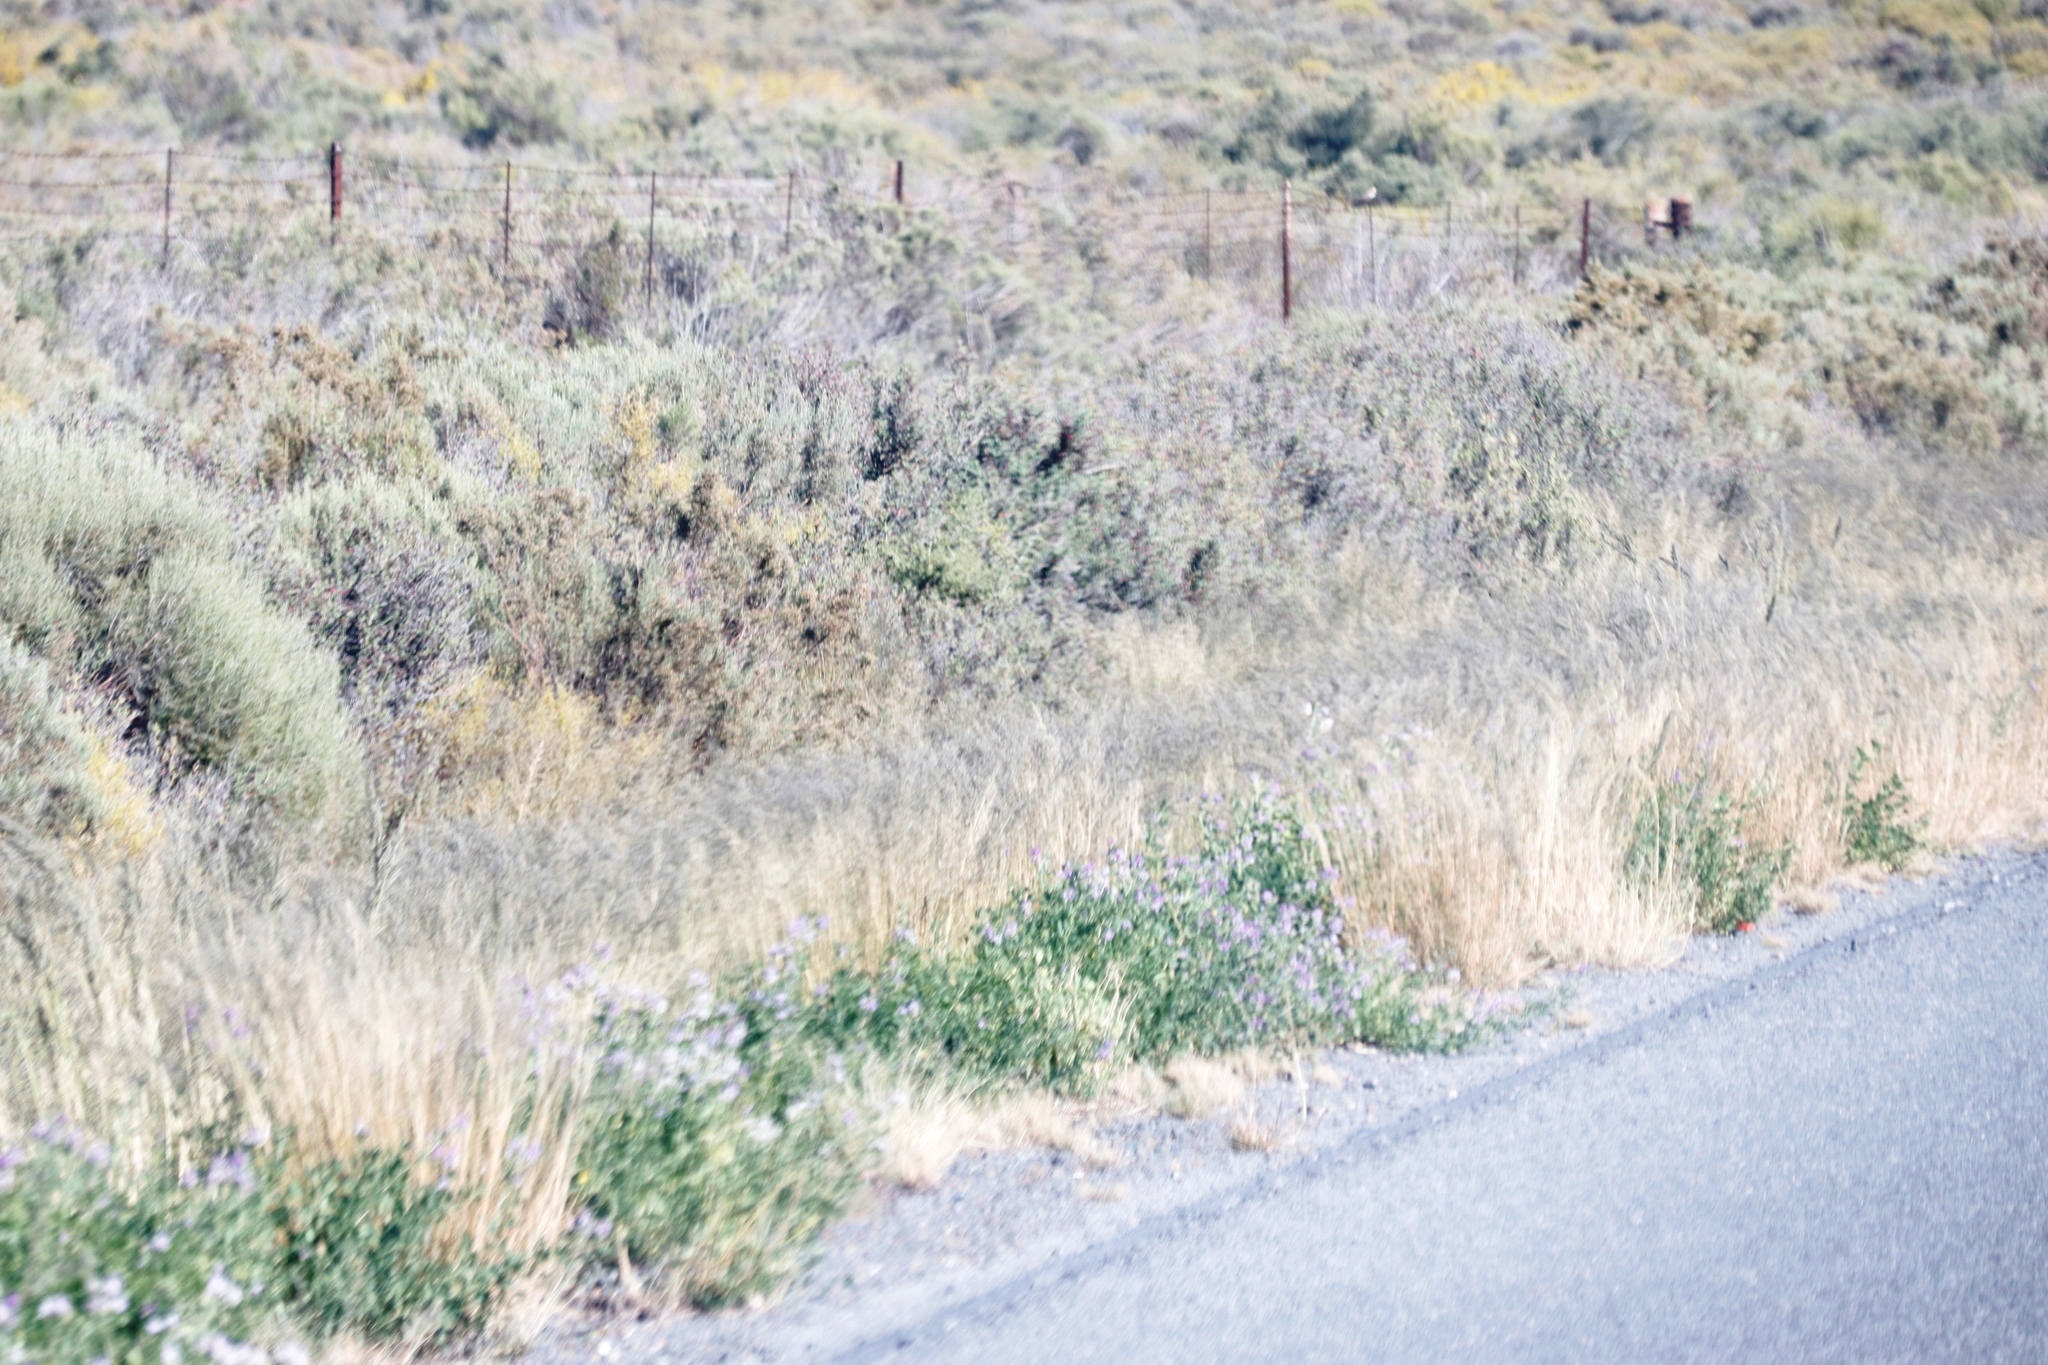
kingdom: Plantae
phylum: Tracheophyta
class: Magnoliopsida
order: Fabales
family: Fabaceae
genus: Medicago
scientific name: Medicago sativa
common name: Alfalfa
